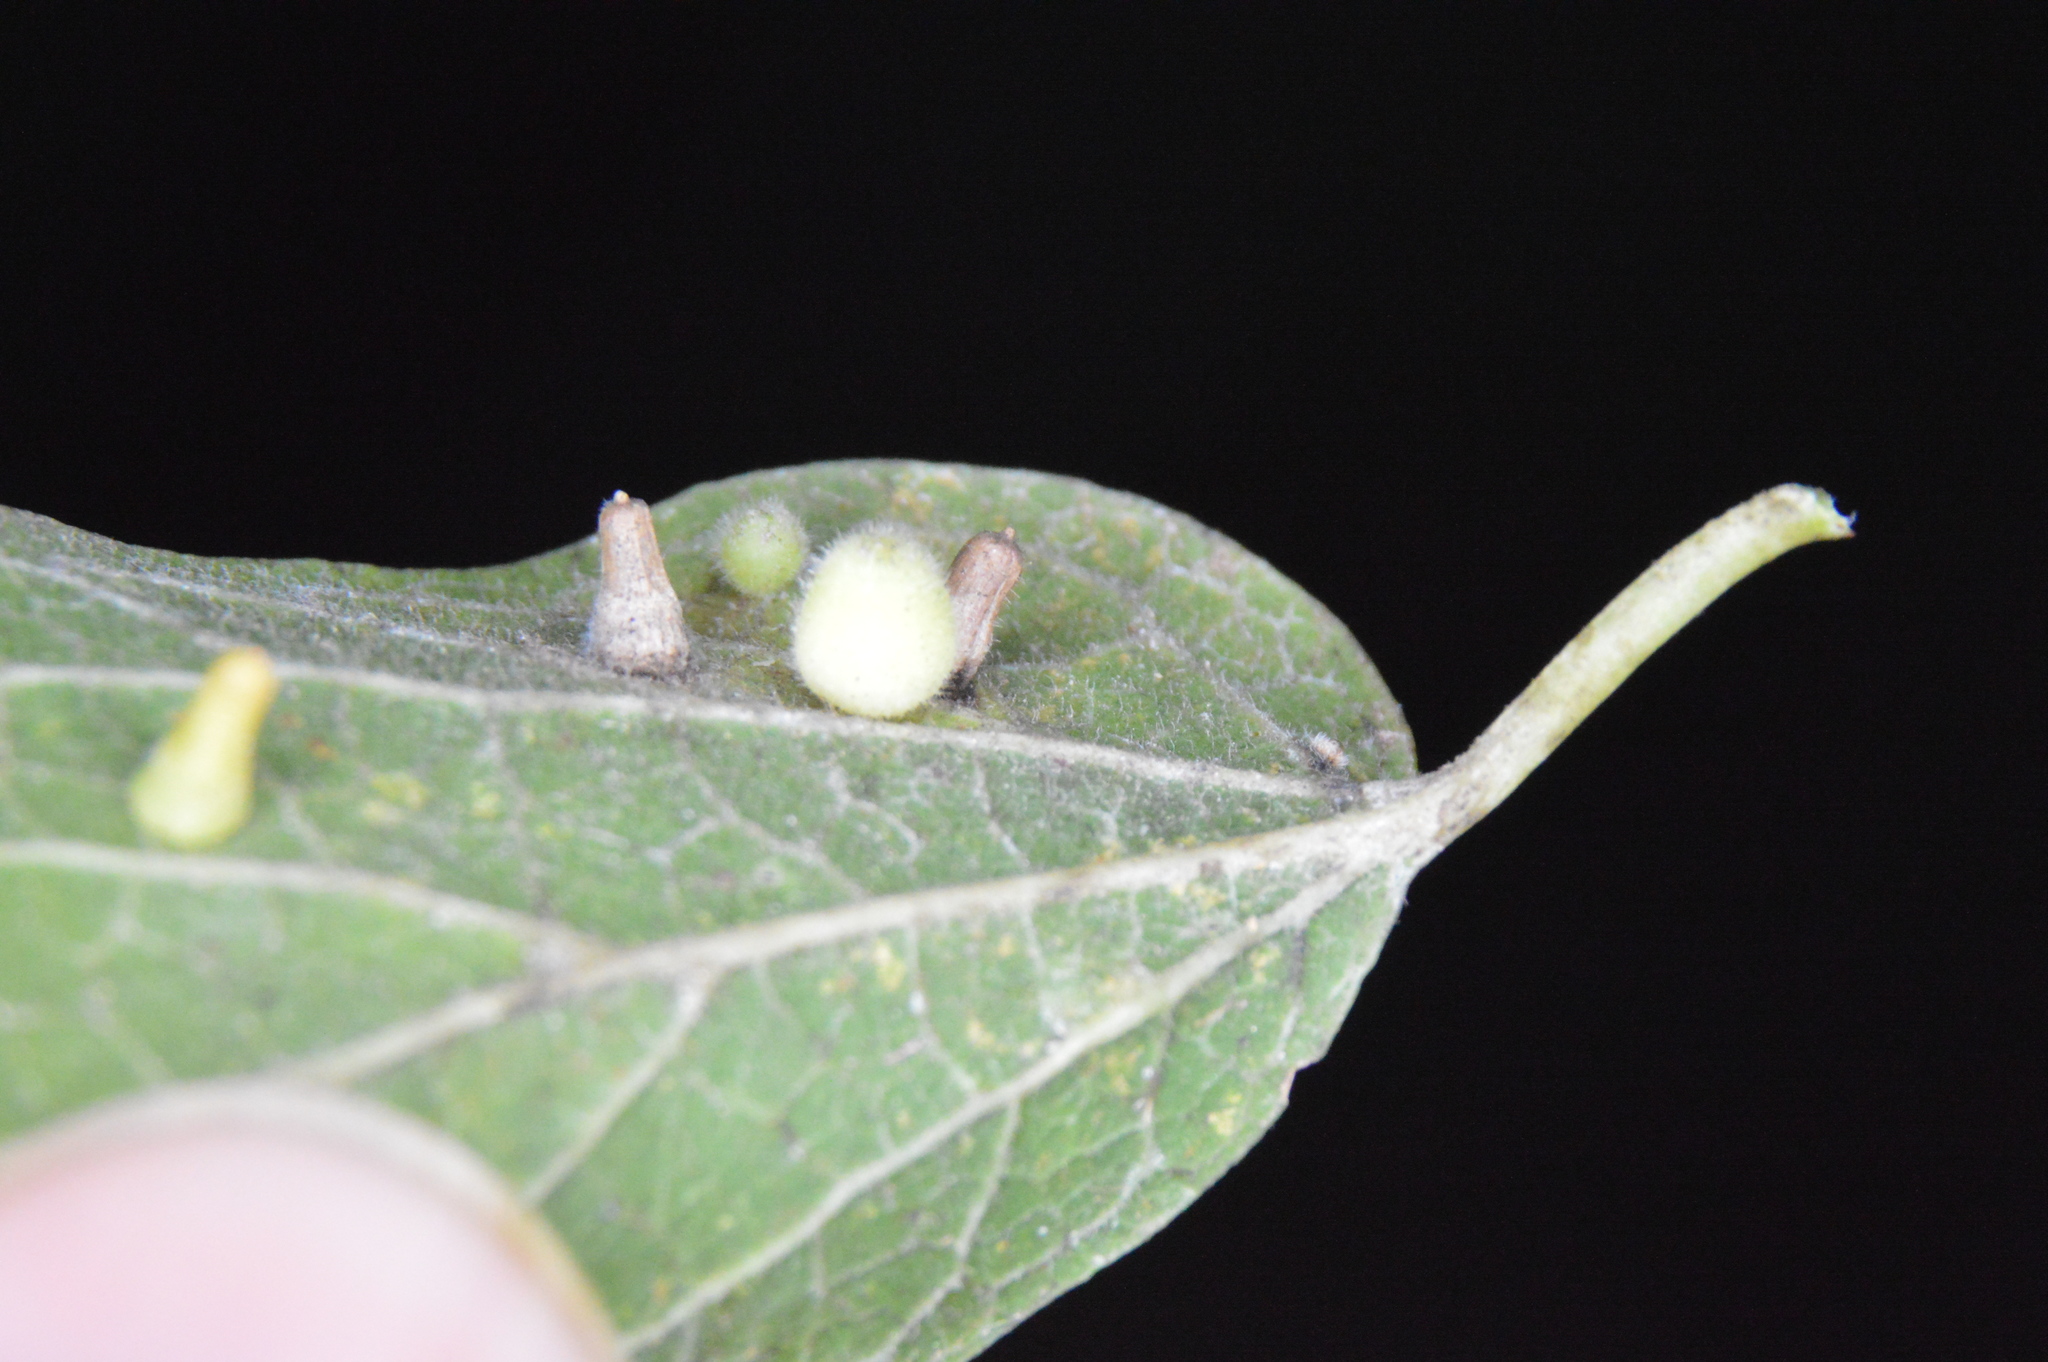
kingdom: Animalia
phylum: Arthropoda
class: Insecta
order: Diptera
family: Cecidomyiidae
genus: Celticecis
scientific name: Celticecis globosa
